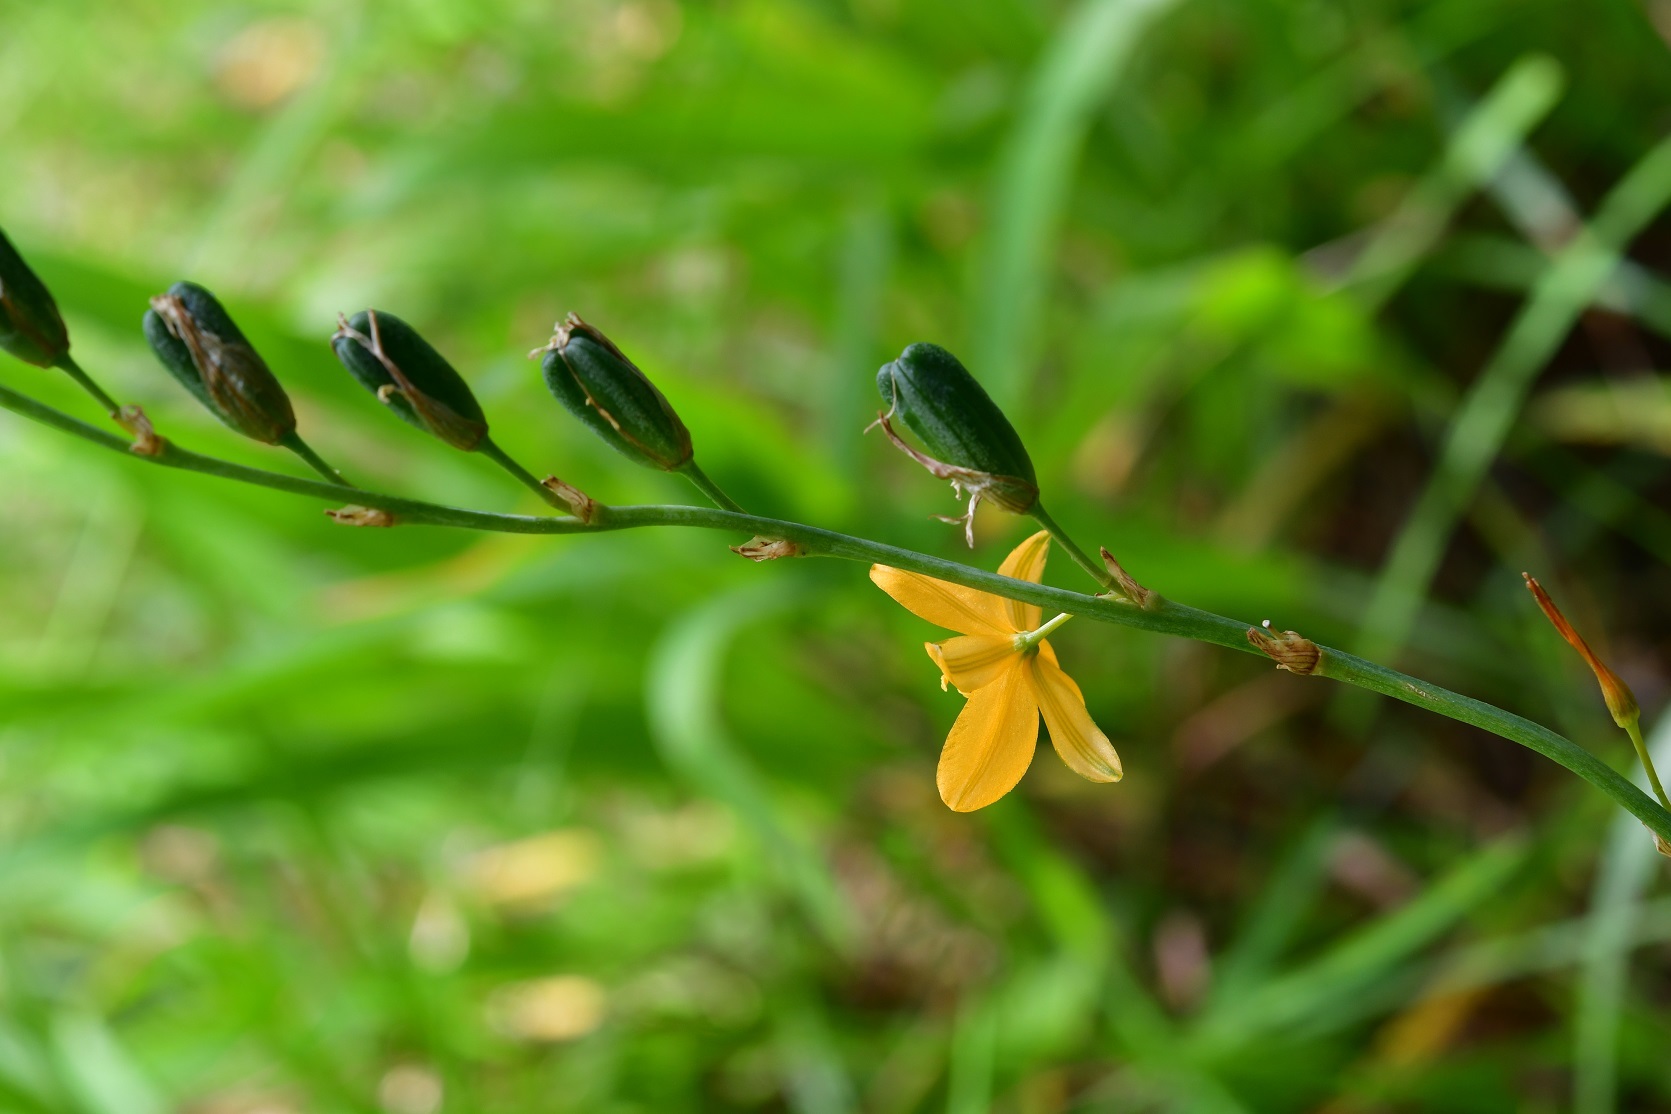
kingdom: Plantae
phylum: Tracheophyta
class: Liliopsida
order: Asparagales
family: Asparagaceae
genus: Echeandia
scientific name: Echeandia skinneri
